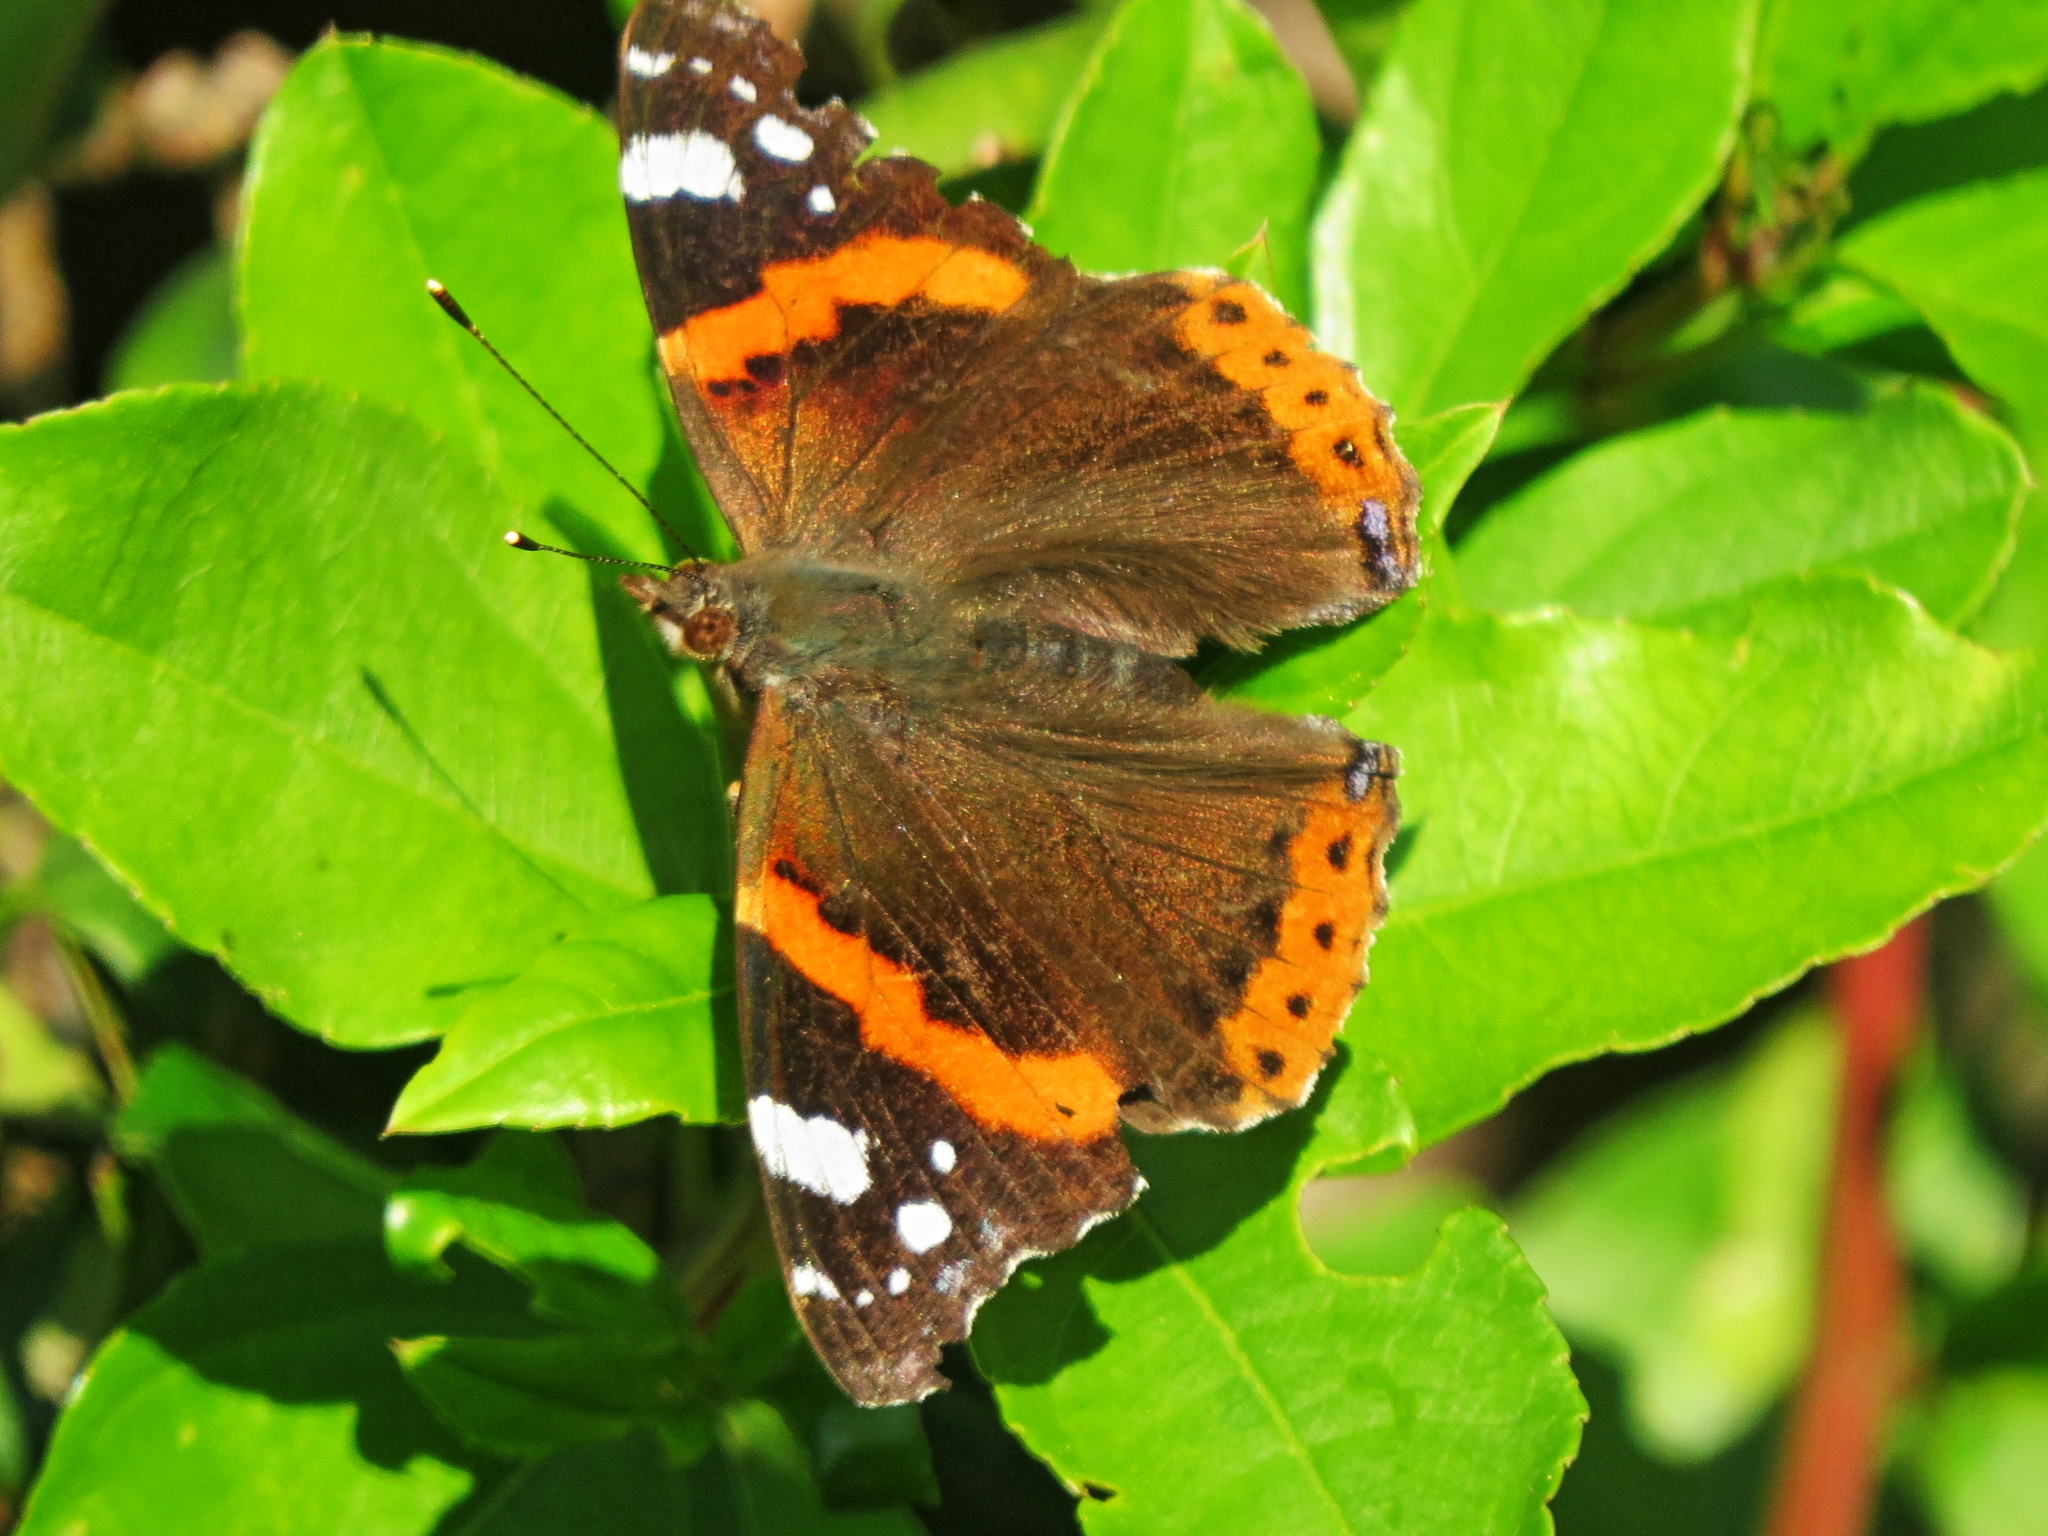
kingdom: Animalia
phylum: Arthropoda
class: Insecta
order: Lepidoptera
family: Nymphalidae
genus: Vanessa
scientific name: Vanessa atalanta
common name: Red admiral
